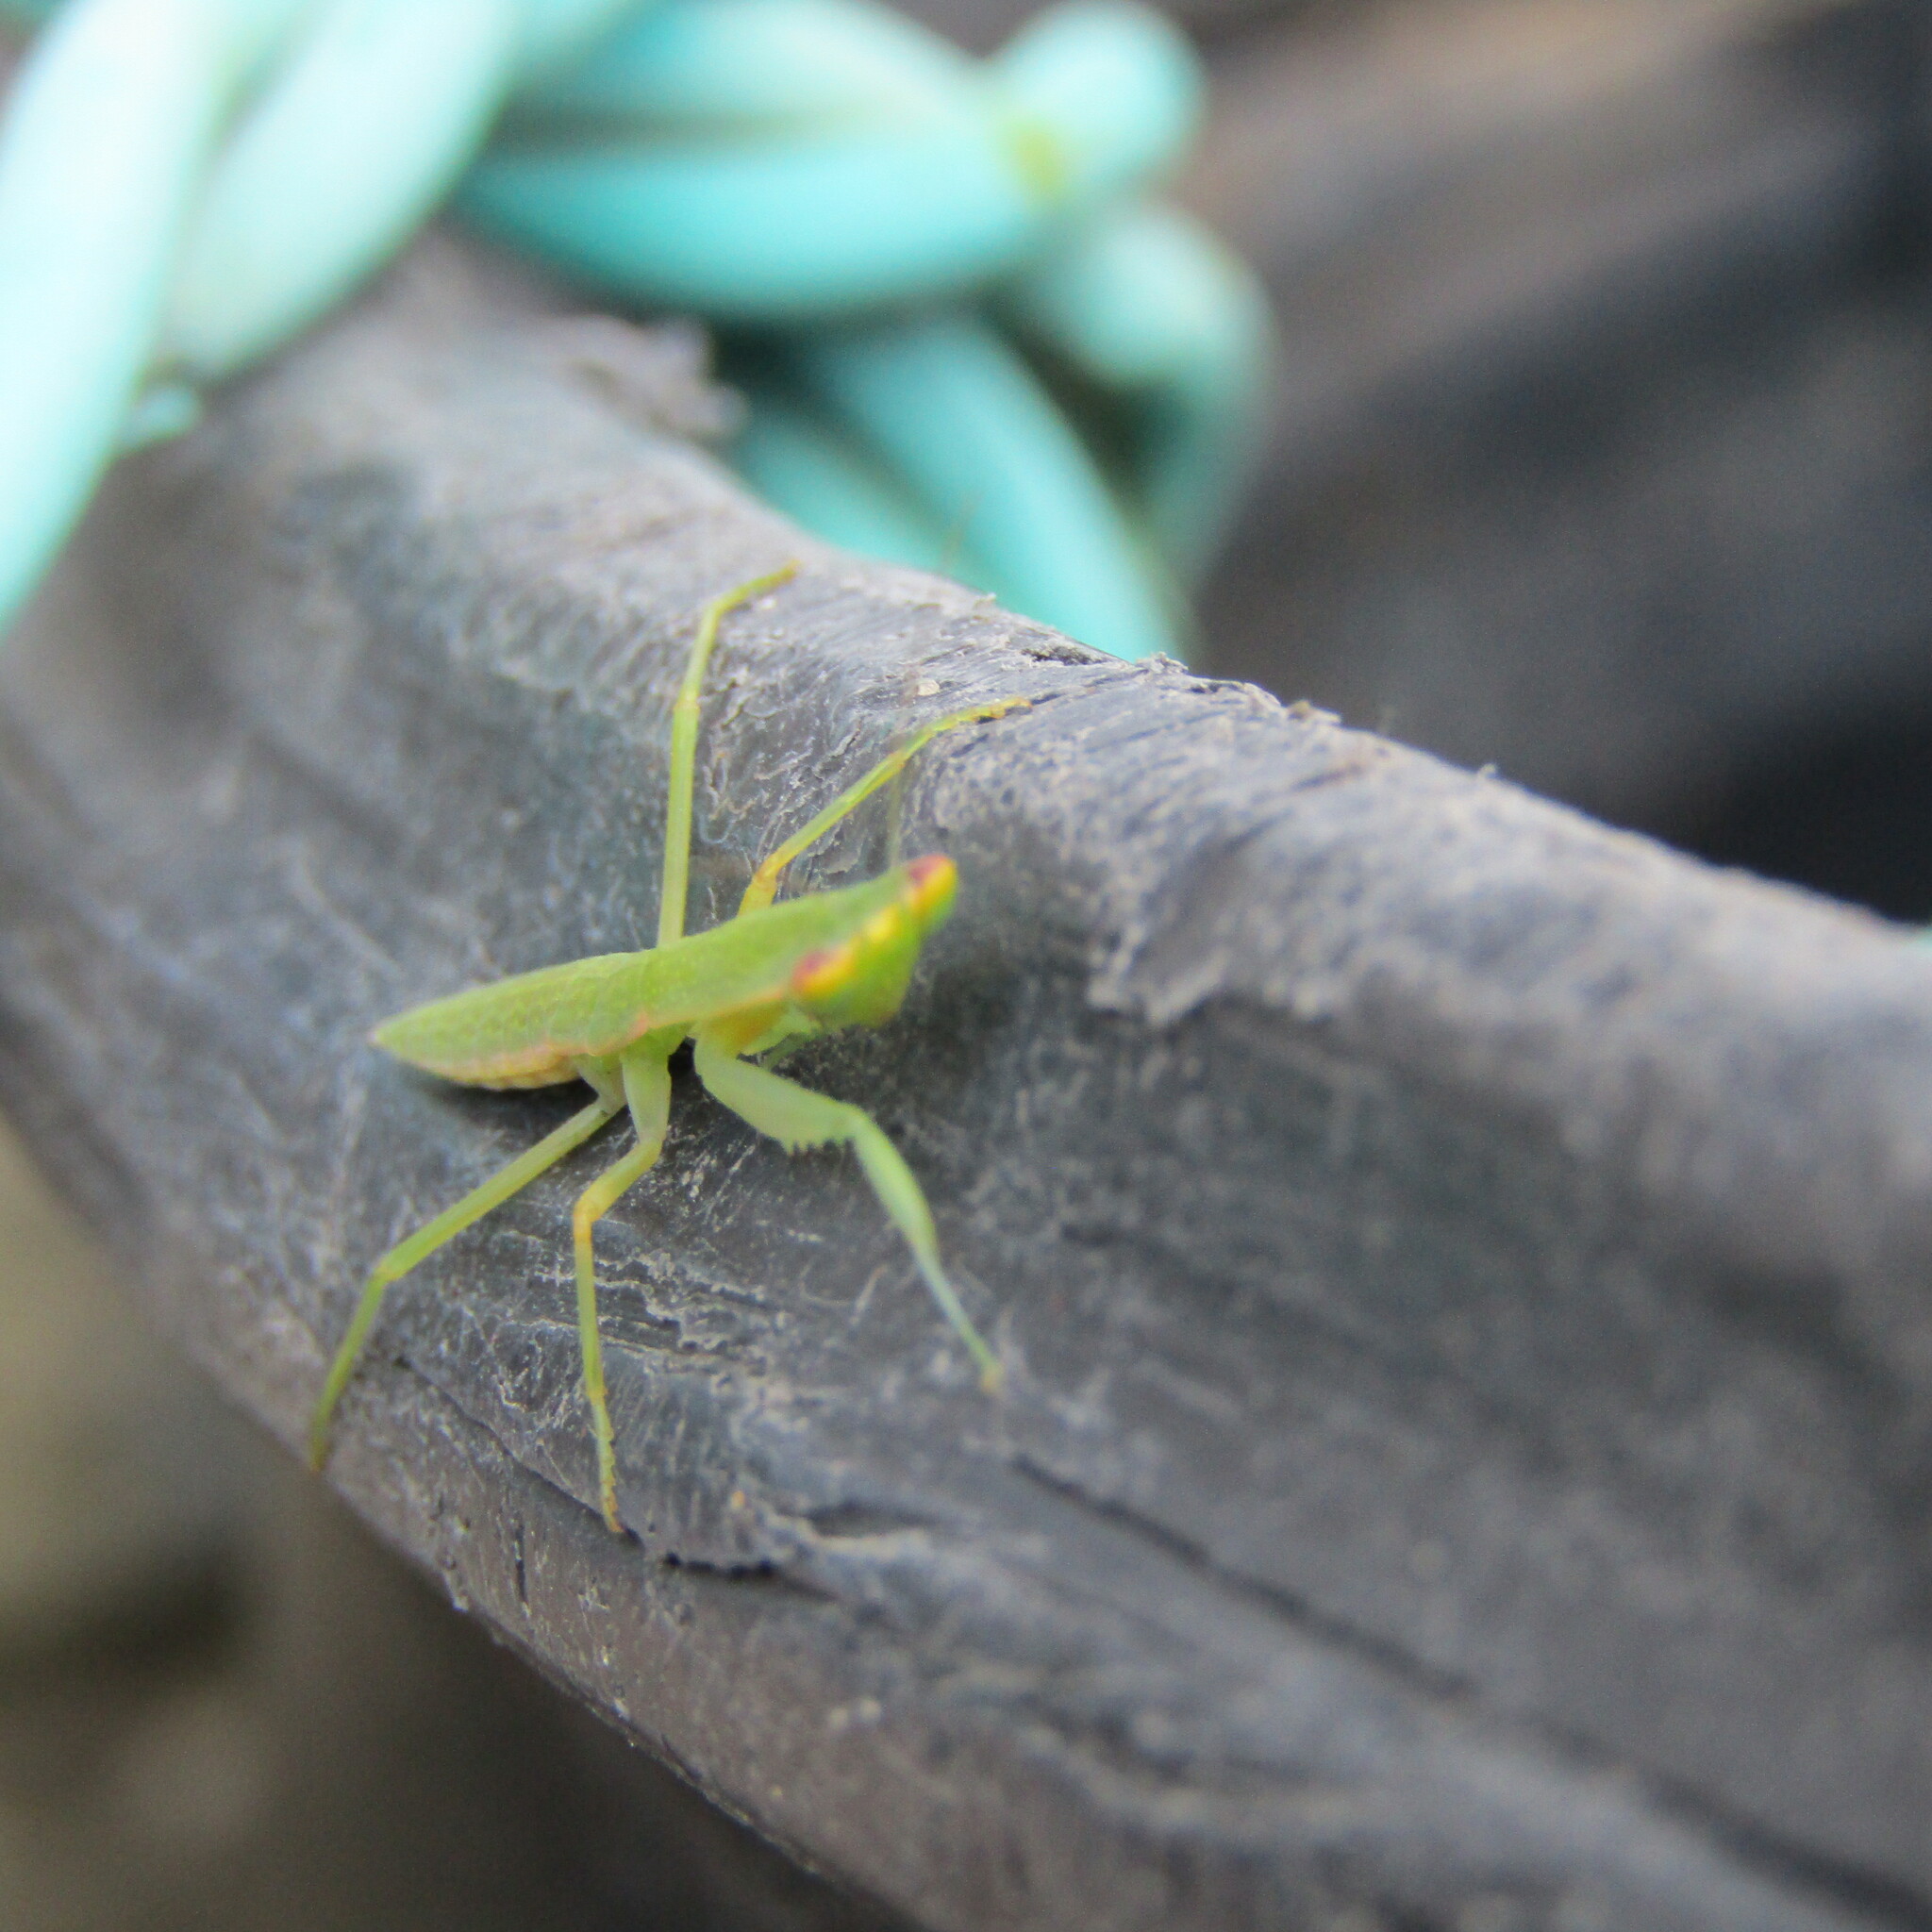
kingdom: Animalia
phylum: Arthropoda
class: Insecta
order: Mantodea
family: Mantidae
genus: Orthodera
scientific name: Orthodera ministralis
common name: Mantis
